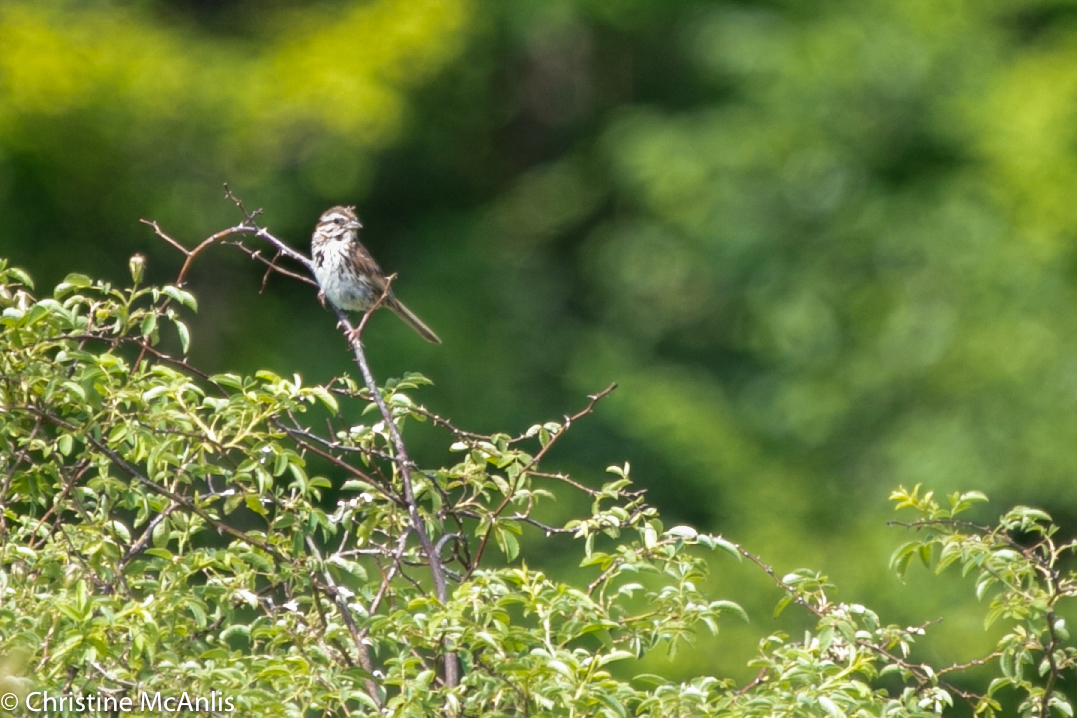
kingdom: Animalia
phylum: Chordata
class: Aves
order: Passeriformes
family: Passerellidae
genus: Melospiza
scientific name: Melospiza melodia
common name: Song sparrow
